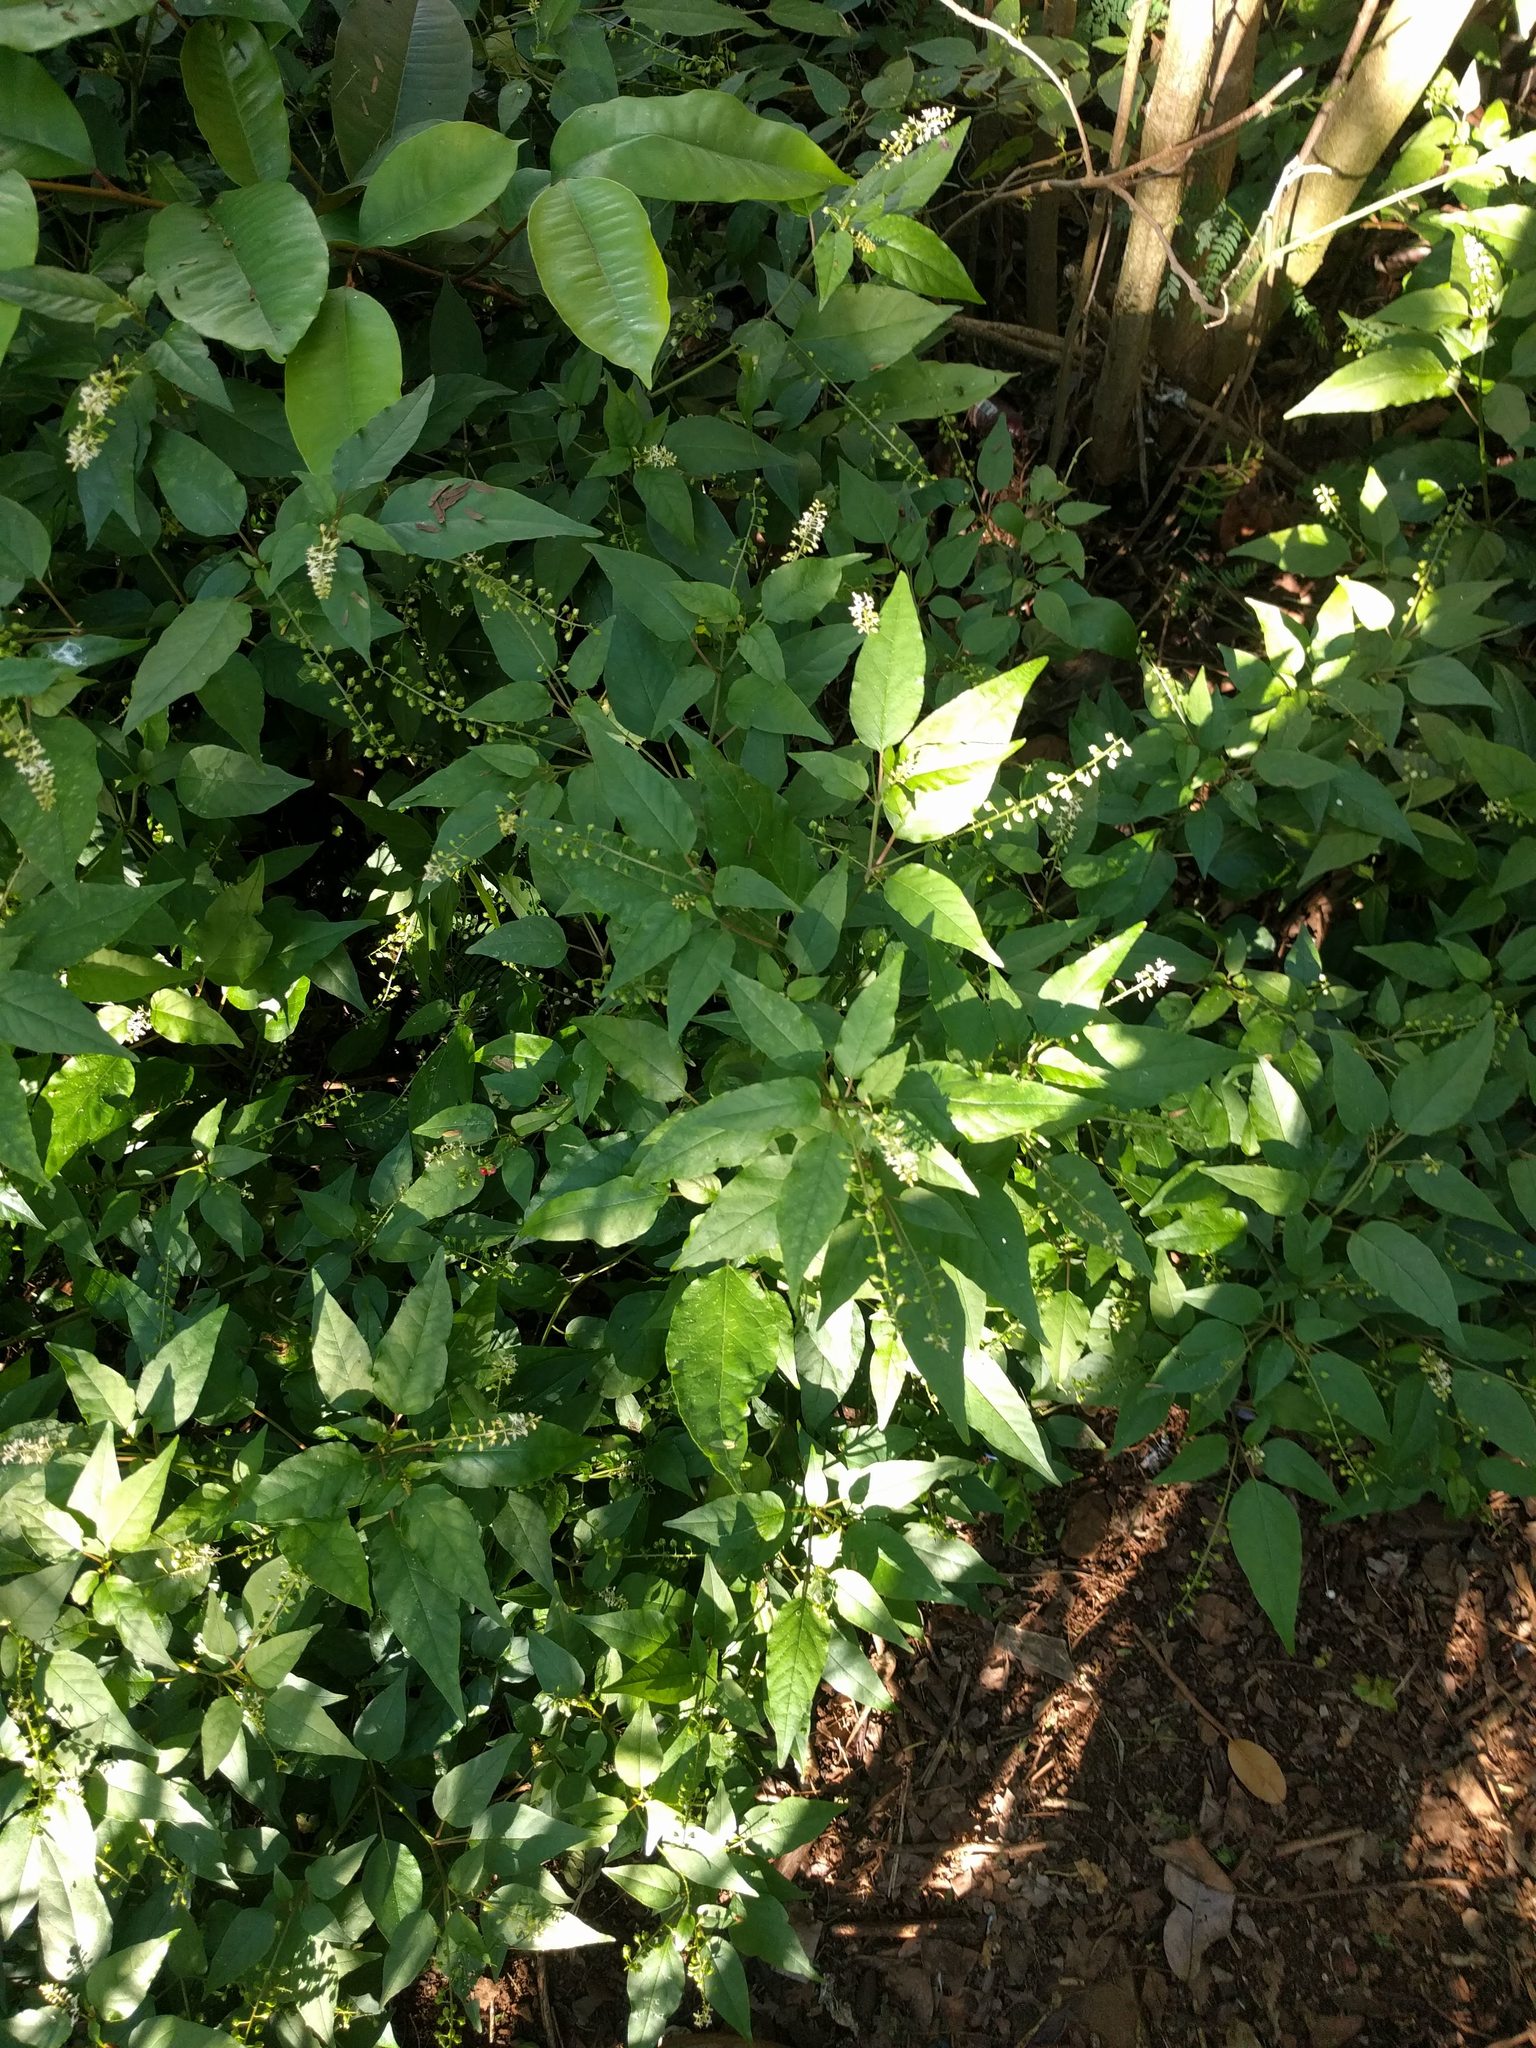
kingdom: Plantae
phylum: Tracheophyta
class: Magnoliopsida
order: Caryophyllales
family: Phytolaccaceae
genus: Rivina
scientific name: Rivina humilis
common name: Rougeplant
